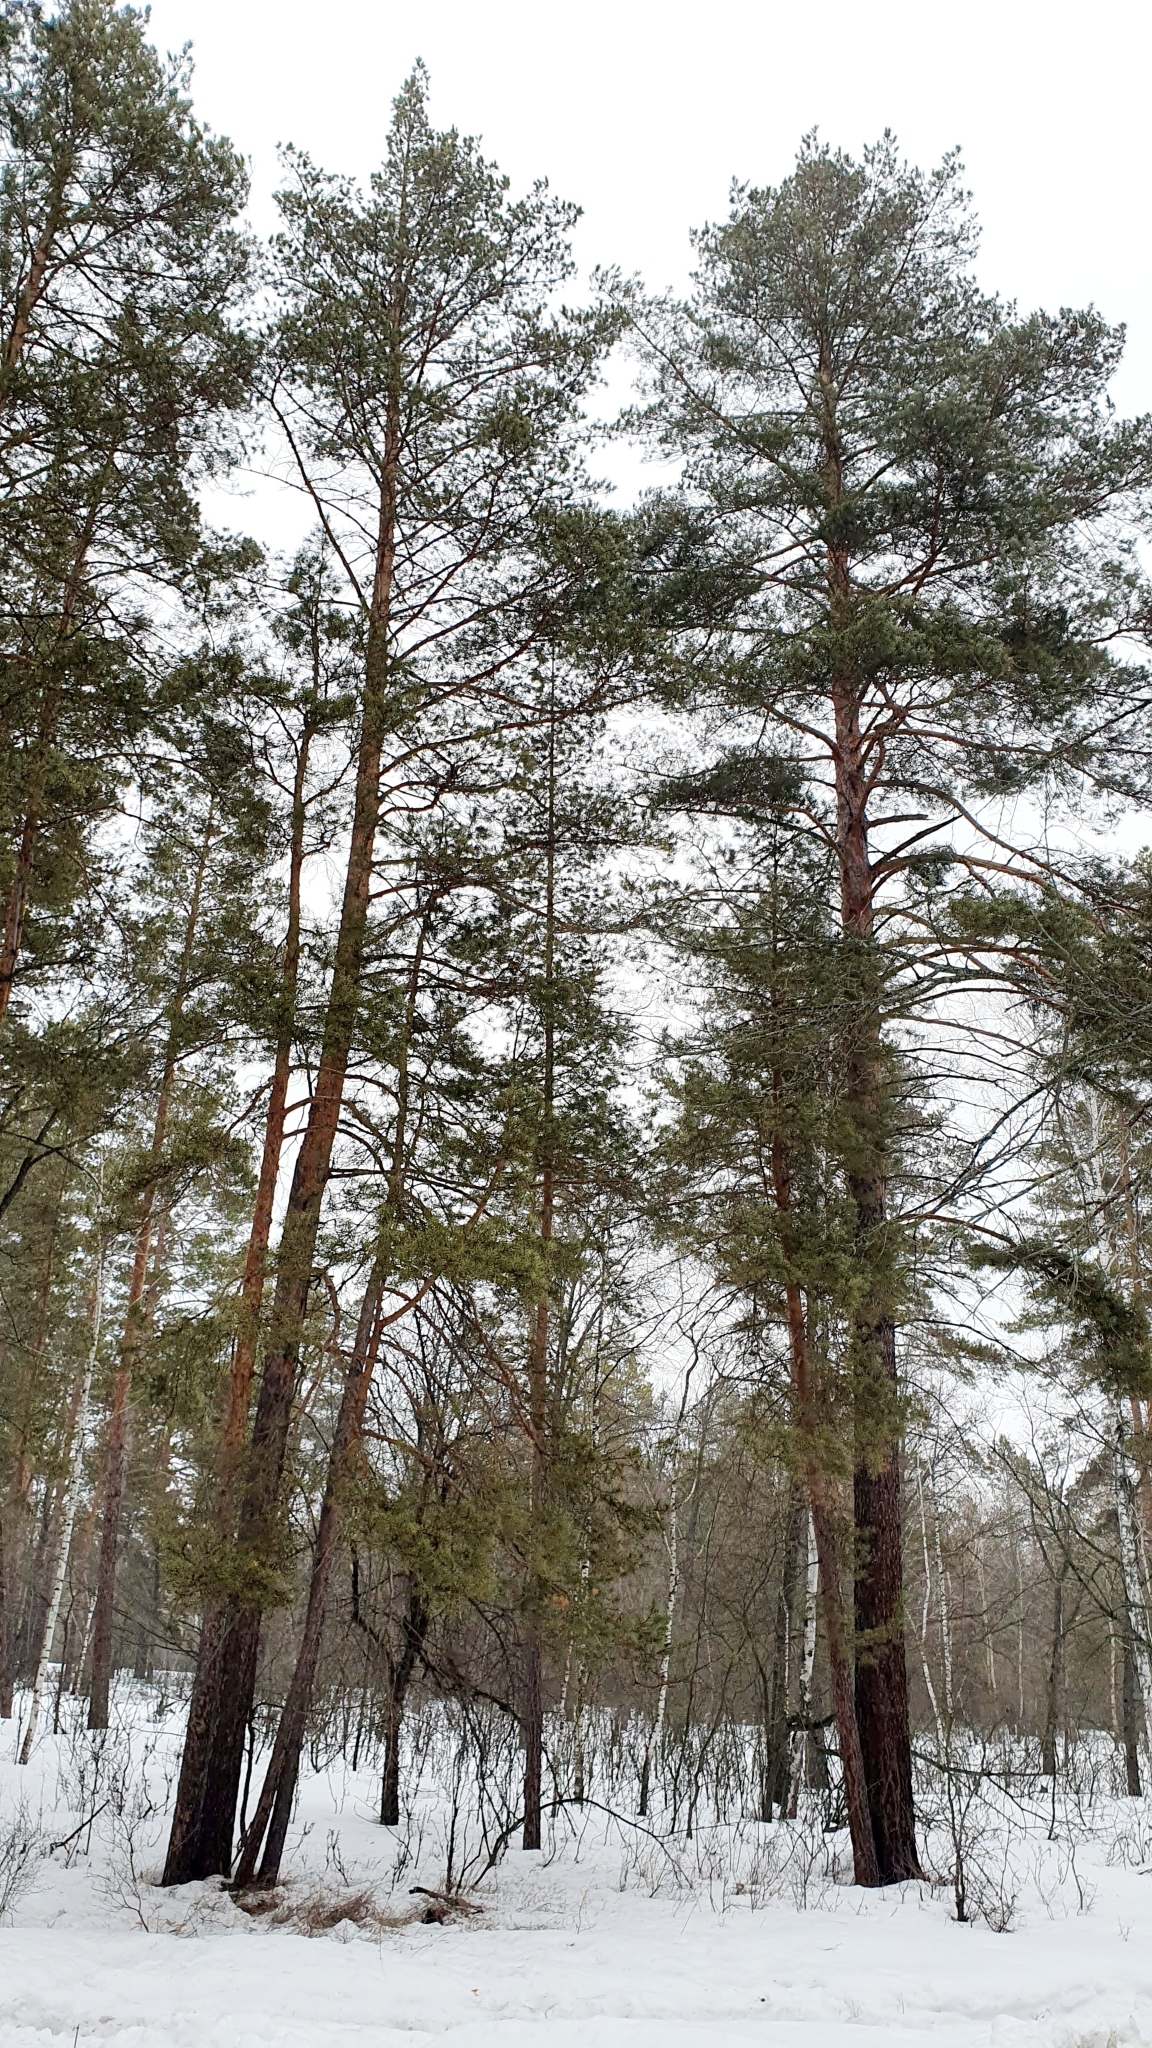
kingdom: Plantae
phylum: Tracheophyta
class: Pinopsida
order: Pinales
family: Pinaceae
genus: Pinus
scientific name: Pinus sylvestris
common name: Scots pine
